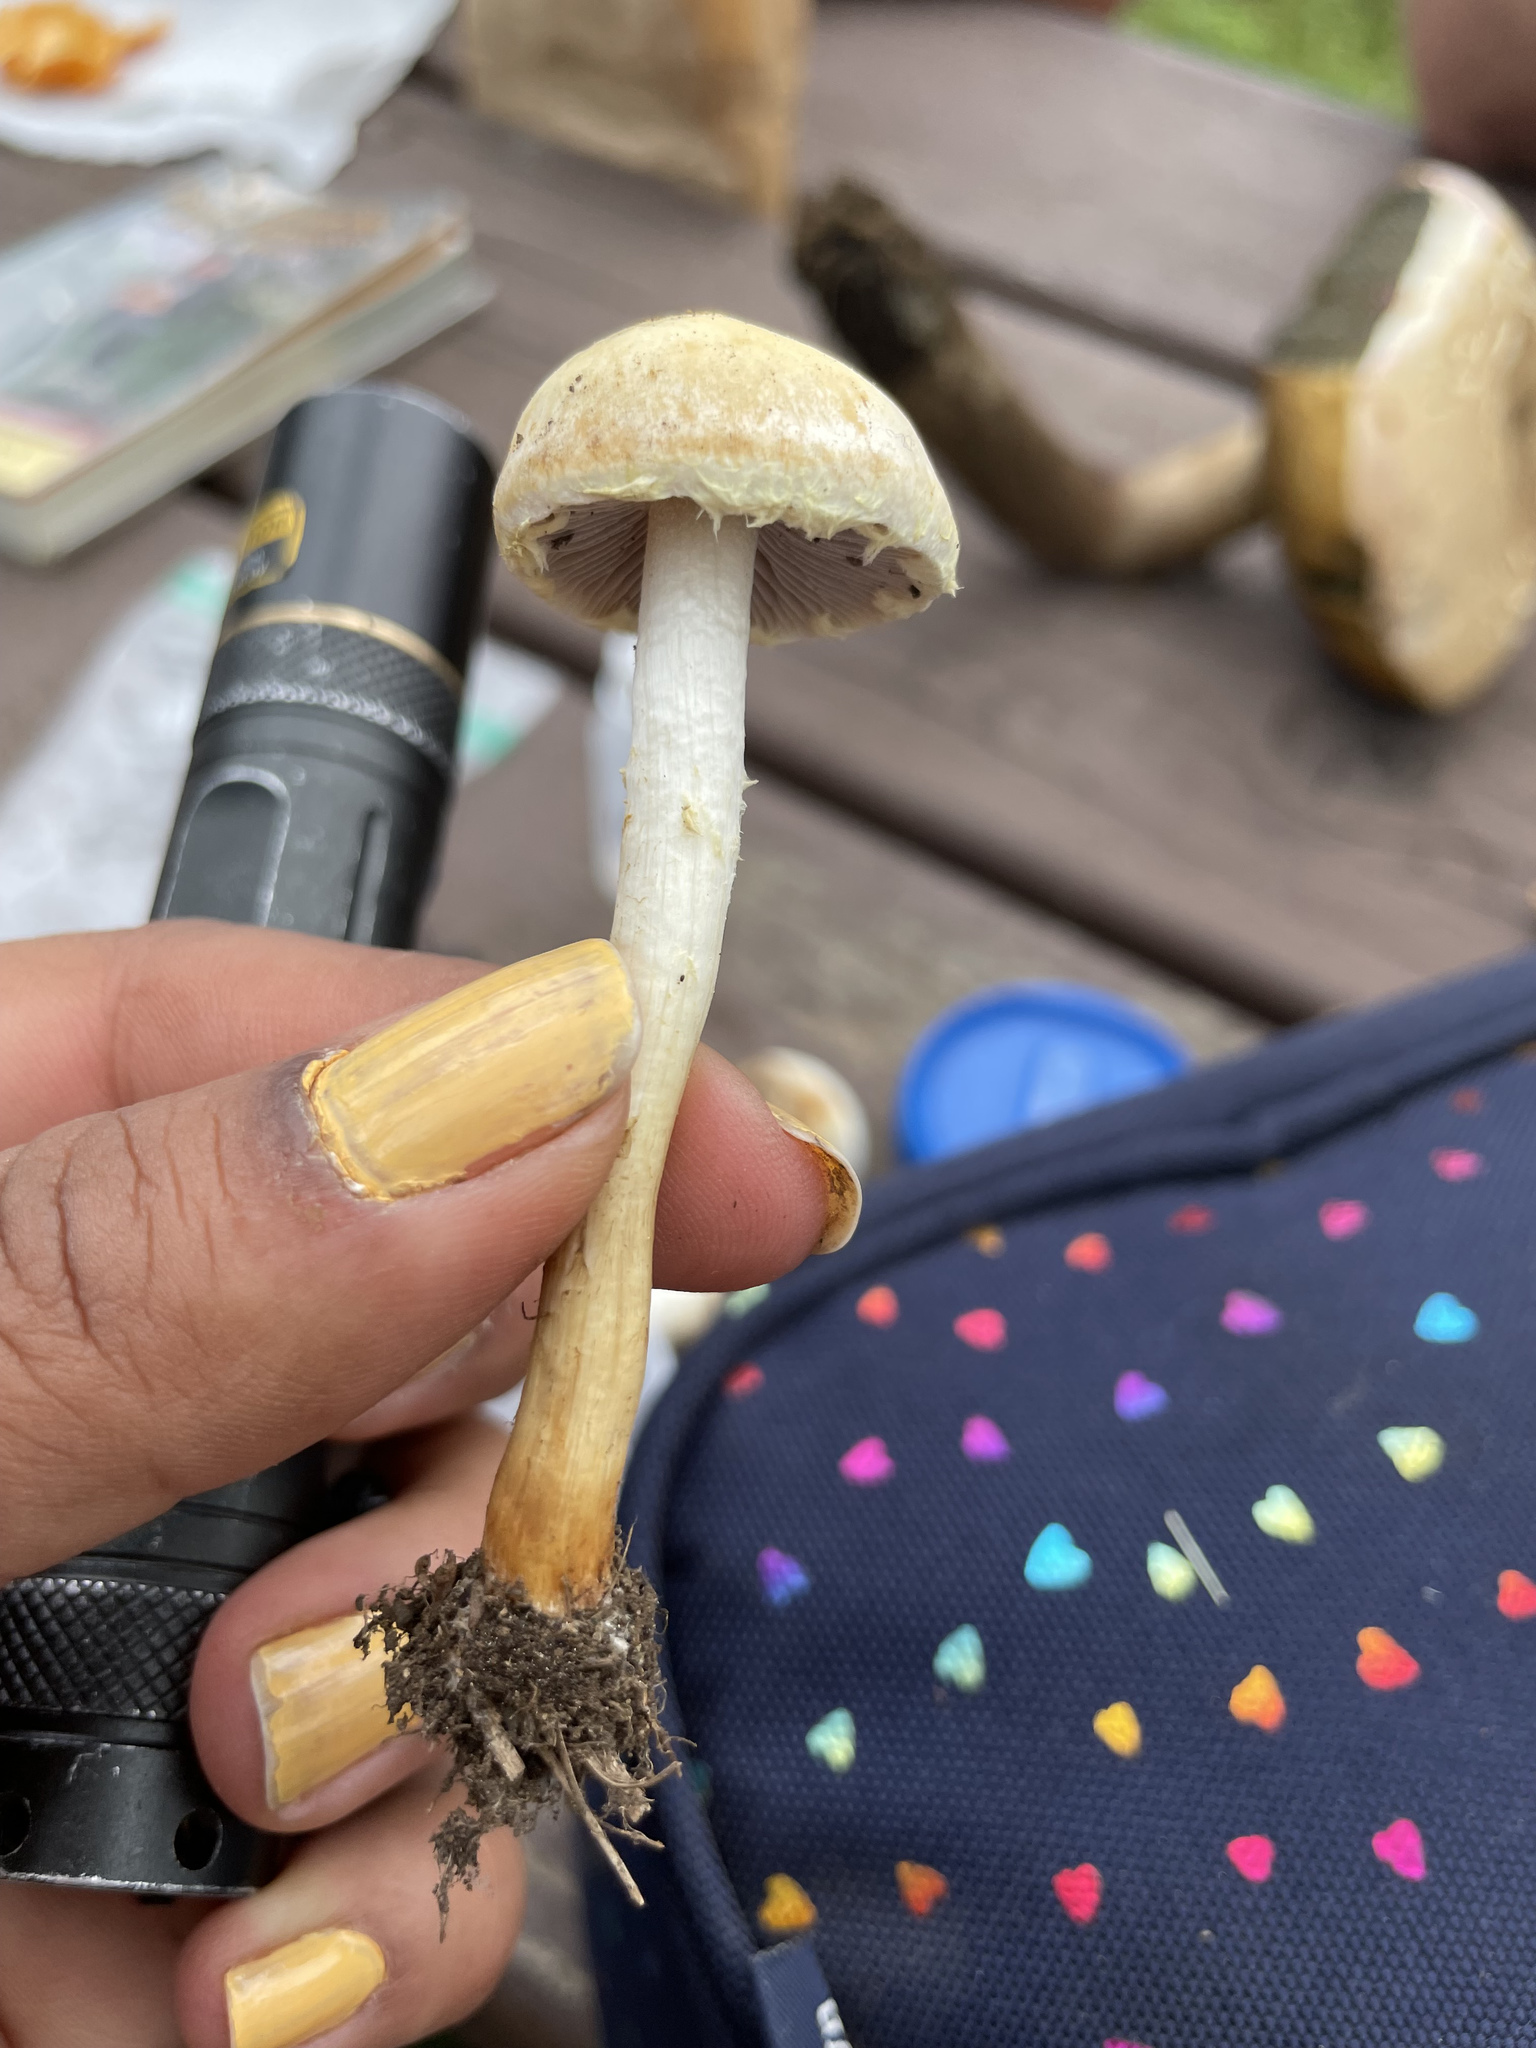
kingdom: Fungi
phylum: Basidiomycota
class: Agaricomycetes
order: Agaricales
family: Strophariaceae
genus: Leratiomyces
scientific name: Leratiomyces percevalii
